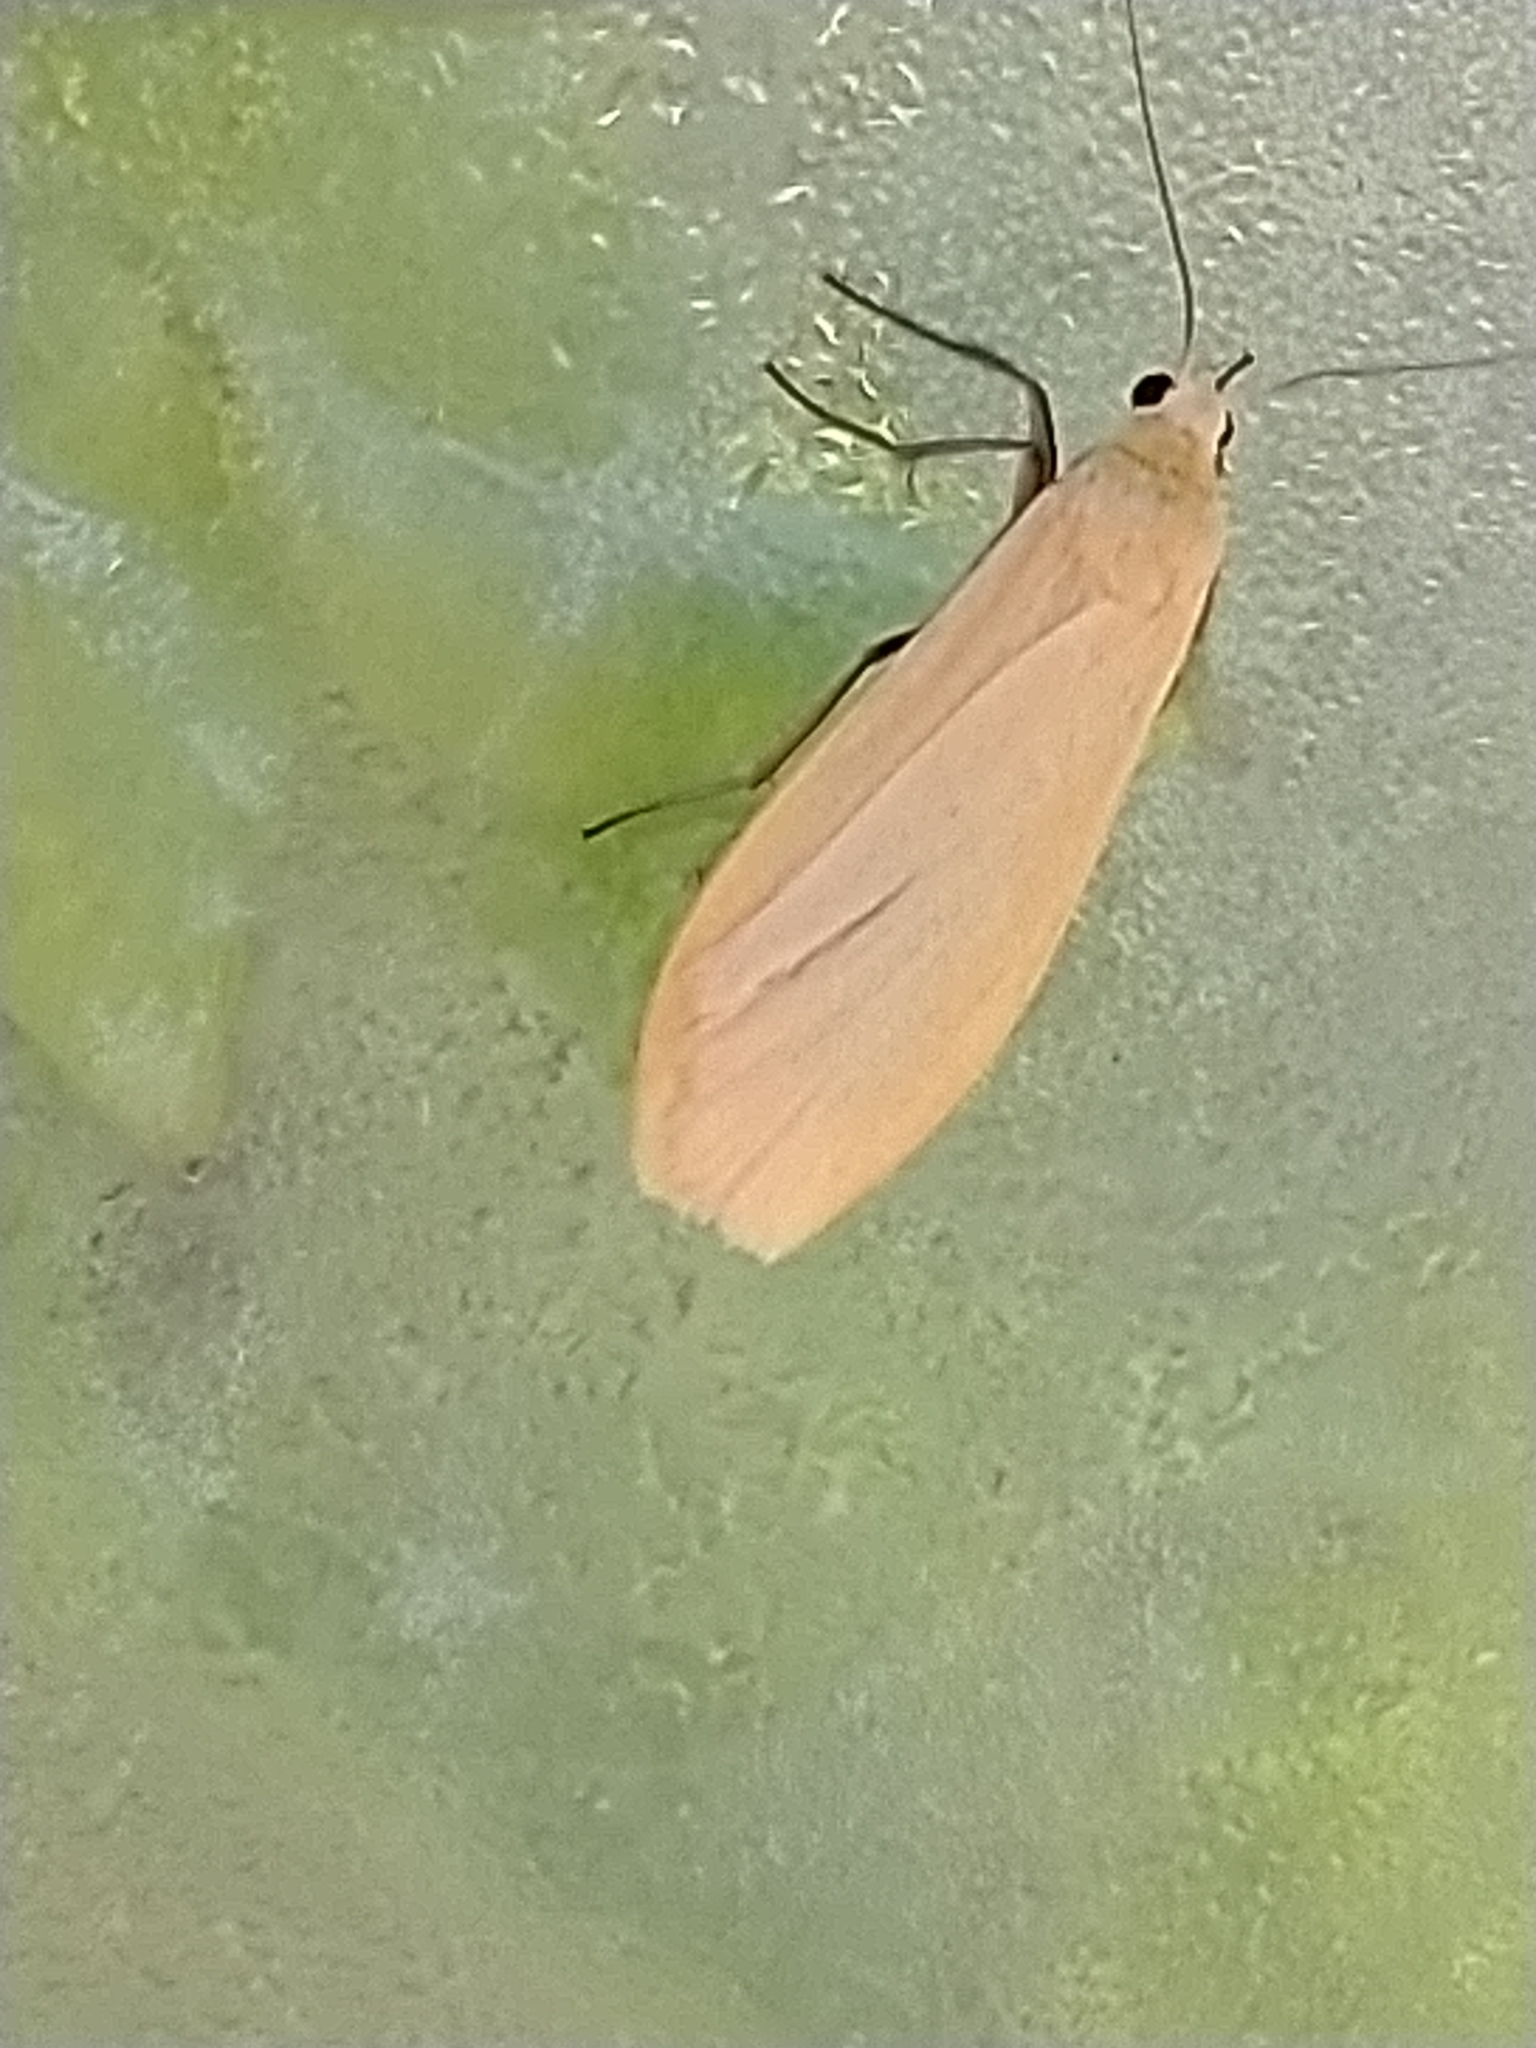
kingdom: Animalia
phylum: Arthropoda
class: Insecta
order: Lepidoptera
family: Erebidae
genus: Wittia
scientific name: Wittia sororcula
